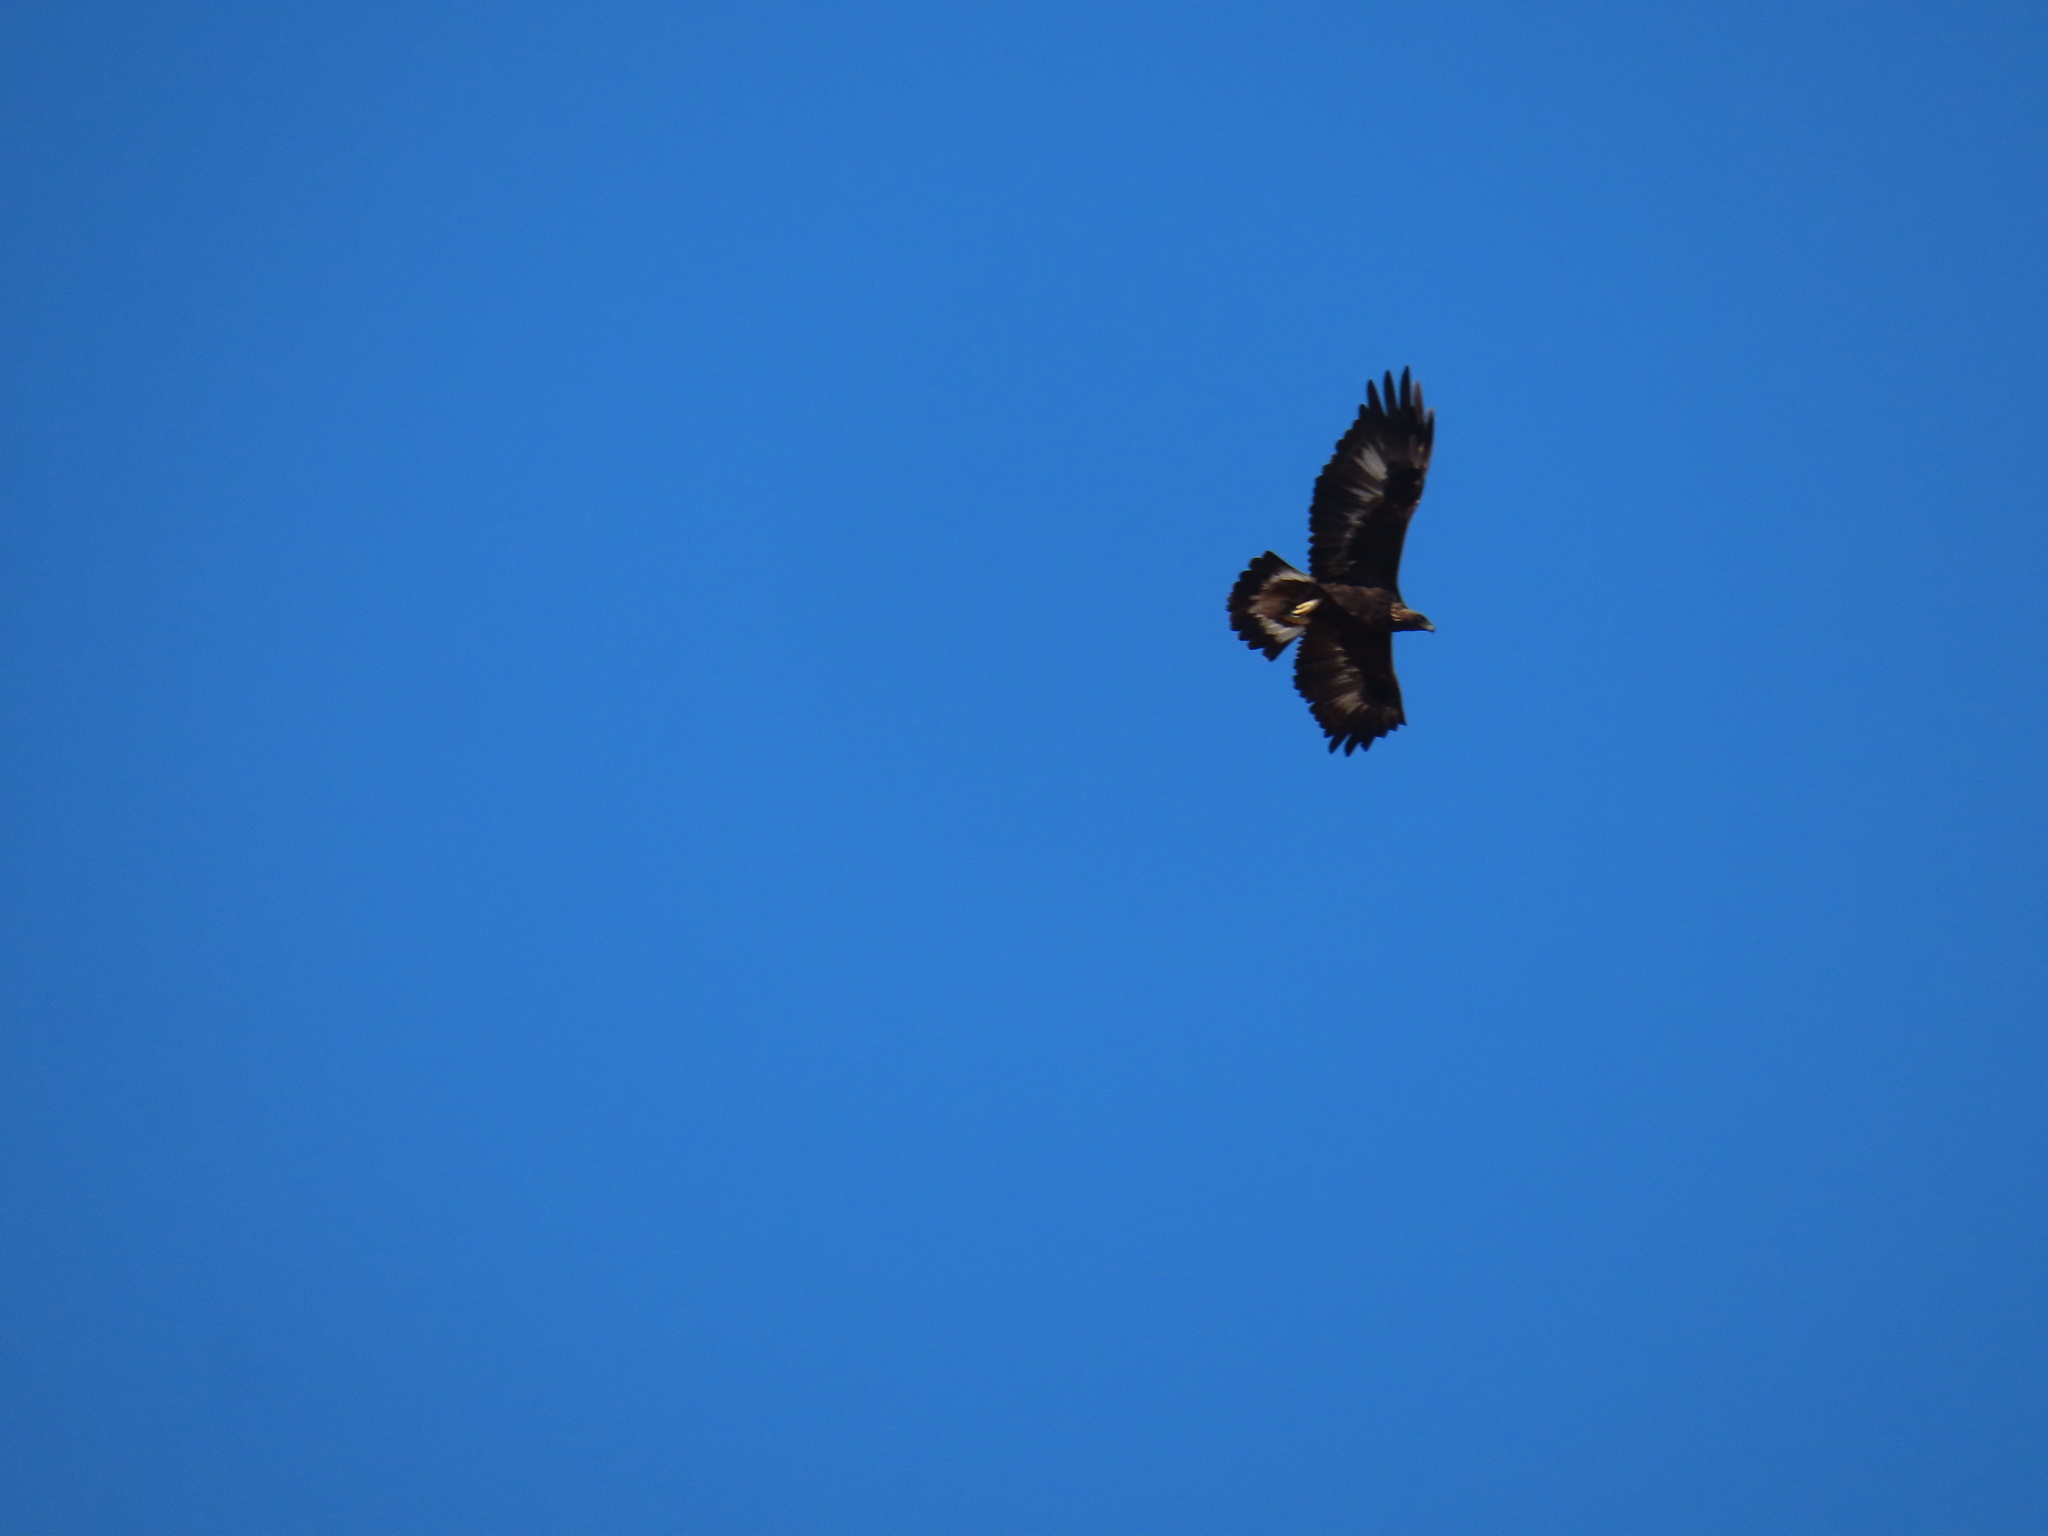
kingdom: Animalia
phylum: Chordata
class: Aves
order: Accipitriformes
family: Accipitridae
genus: Aquila
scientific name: Aquila chrysaetos
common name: Golden eagle
